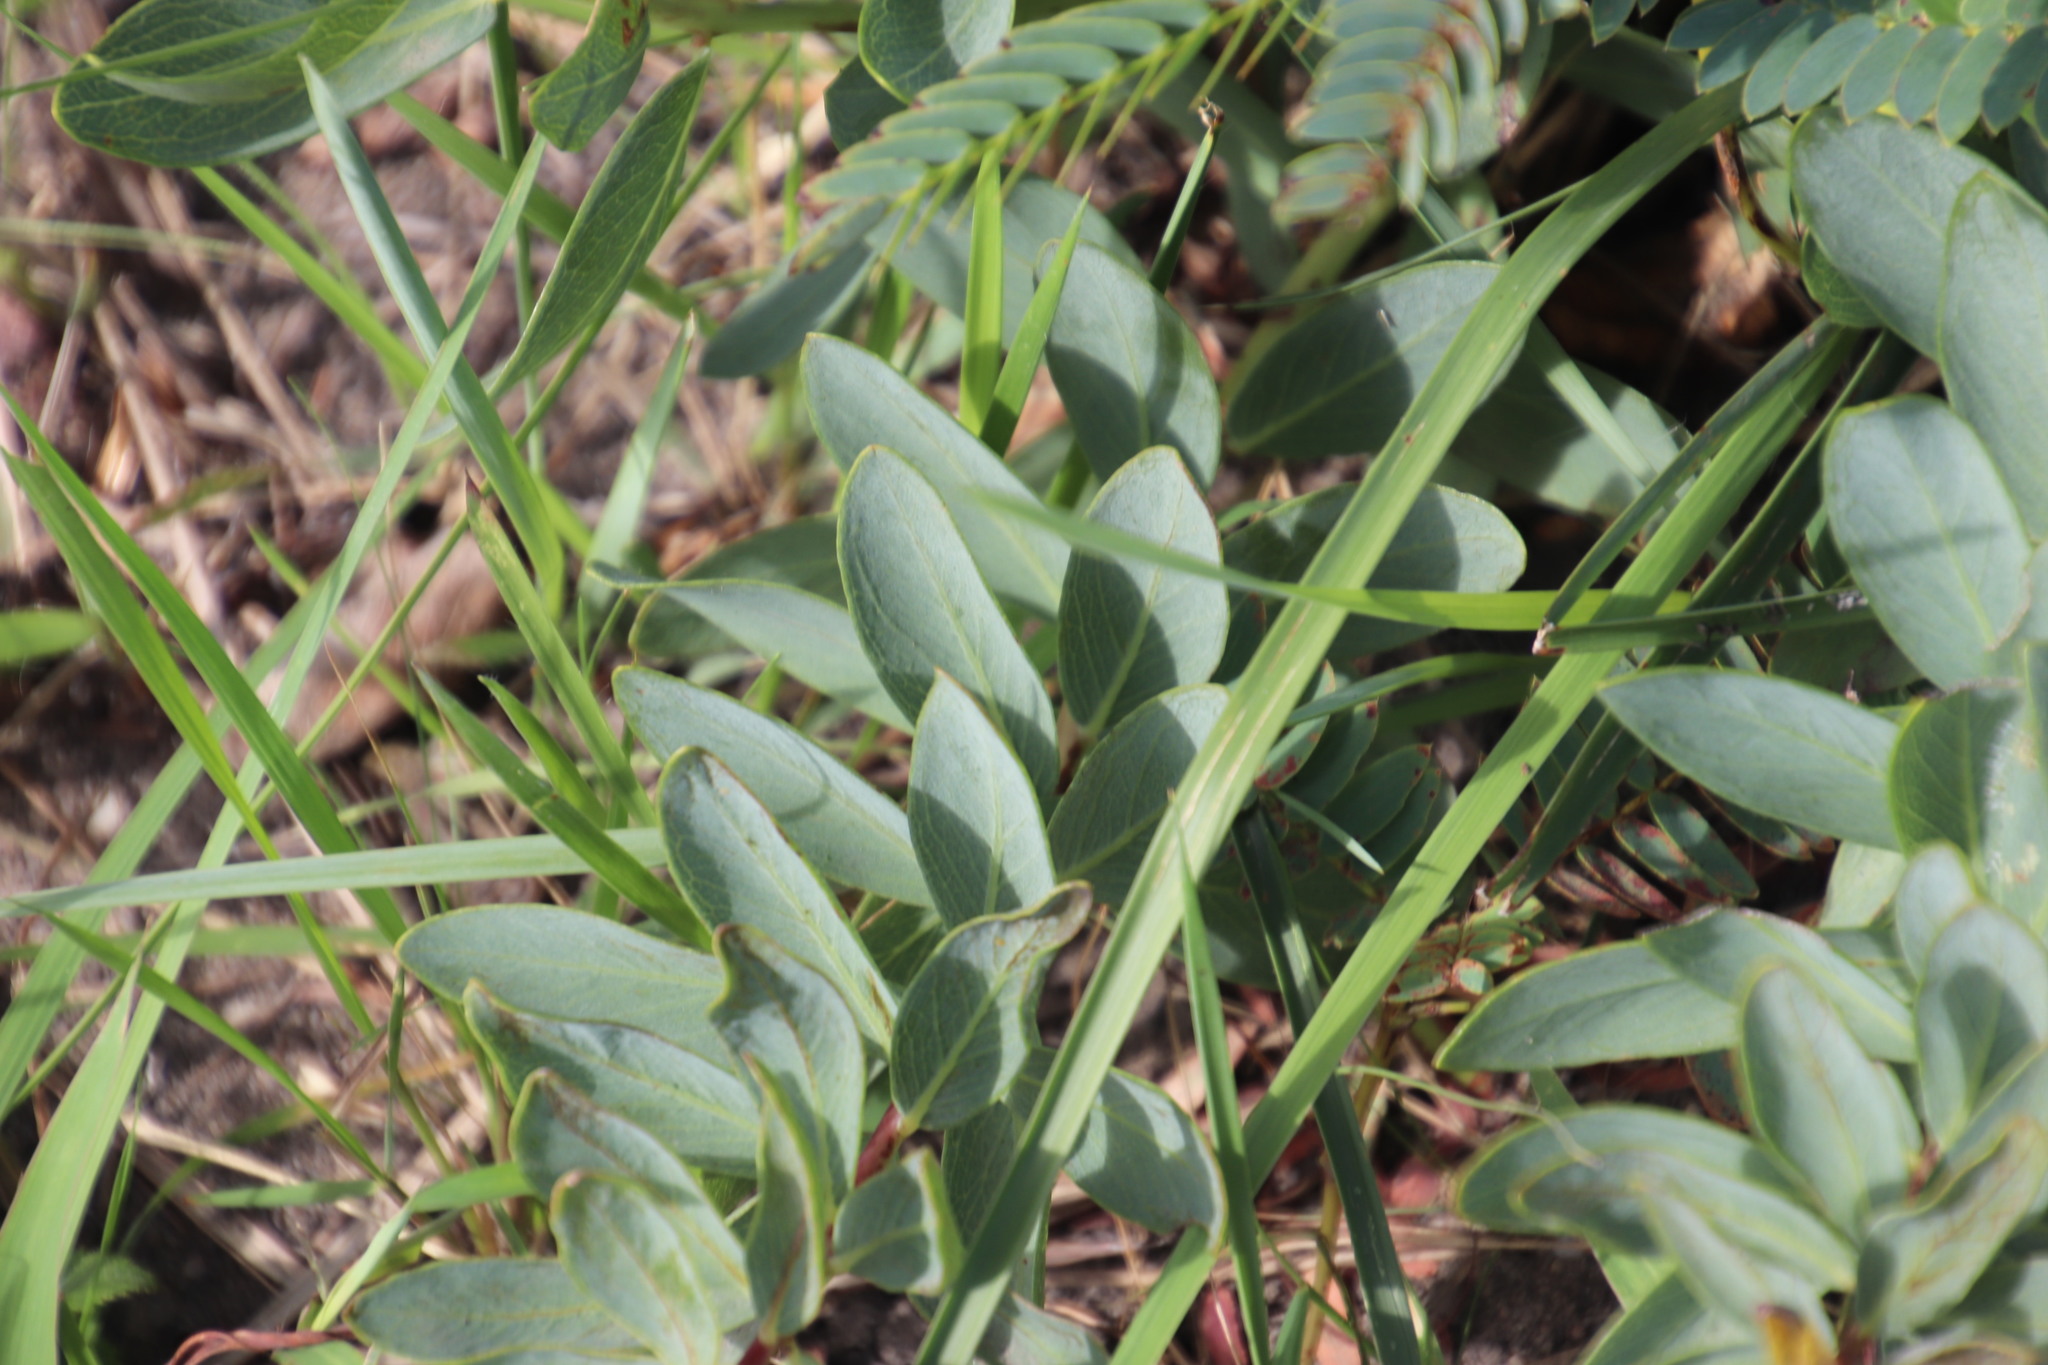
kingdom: Plantae
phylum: Tracheophyta
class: Magnoliopsida
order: Malvales
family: Thymelaeaceae
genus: Gnidia
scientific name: Gnidia kraussiana
